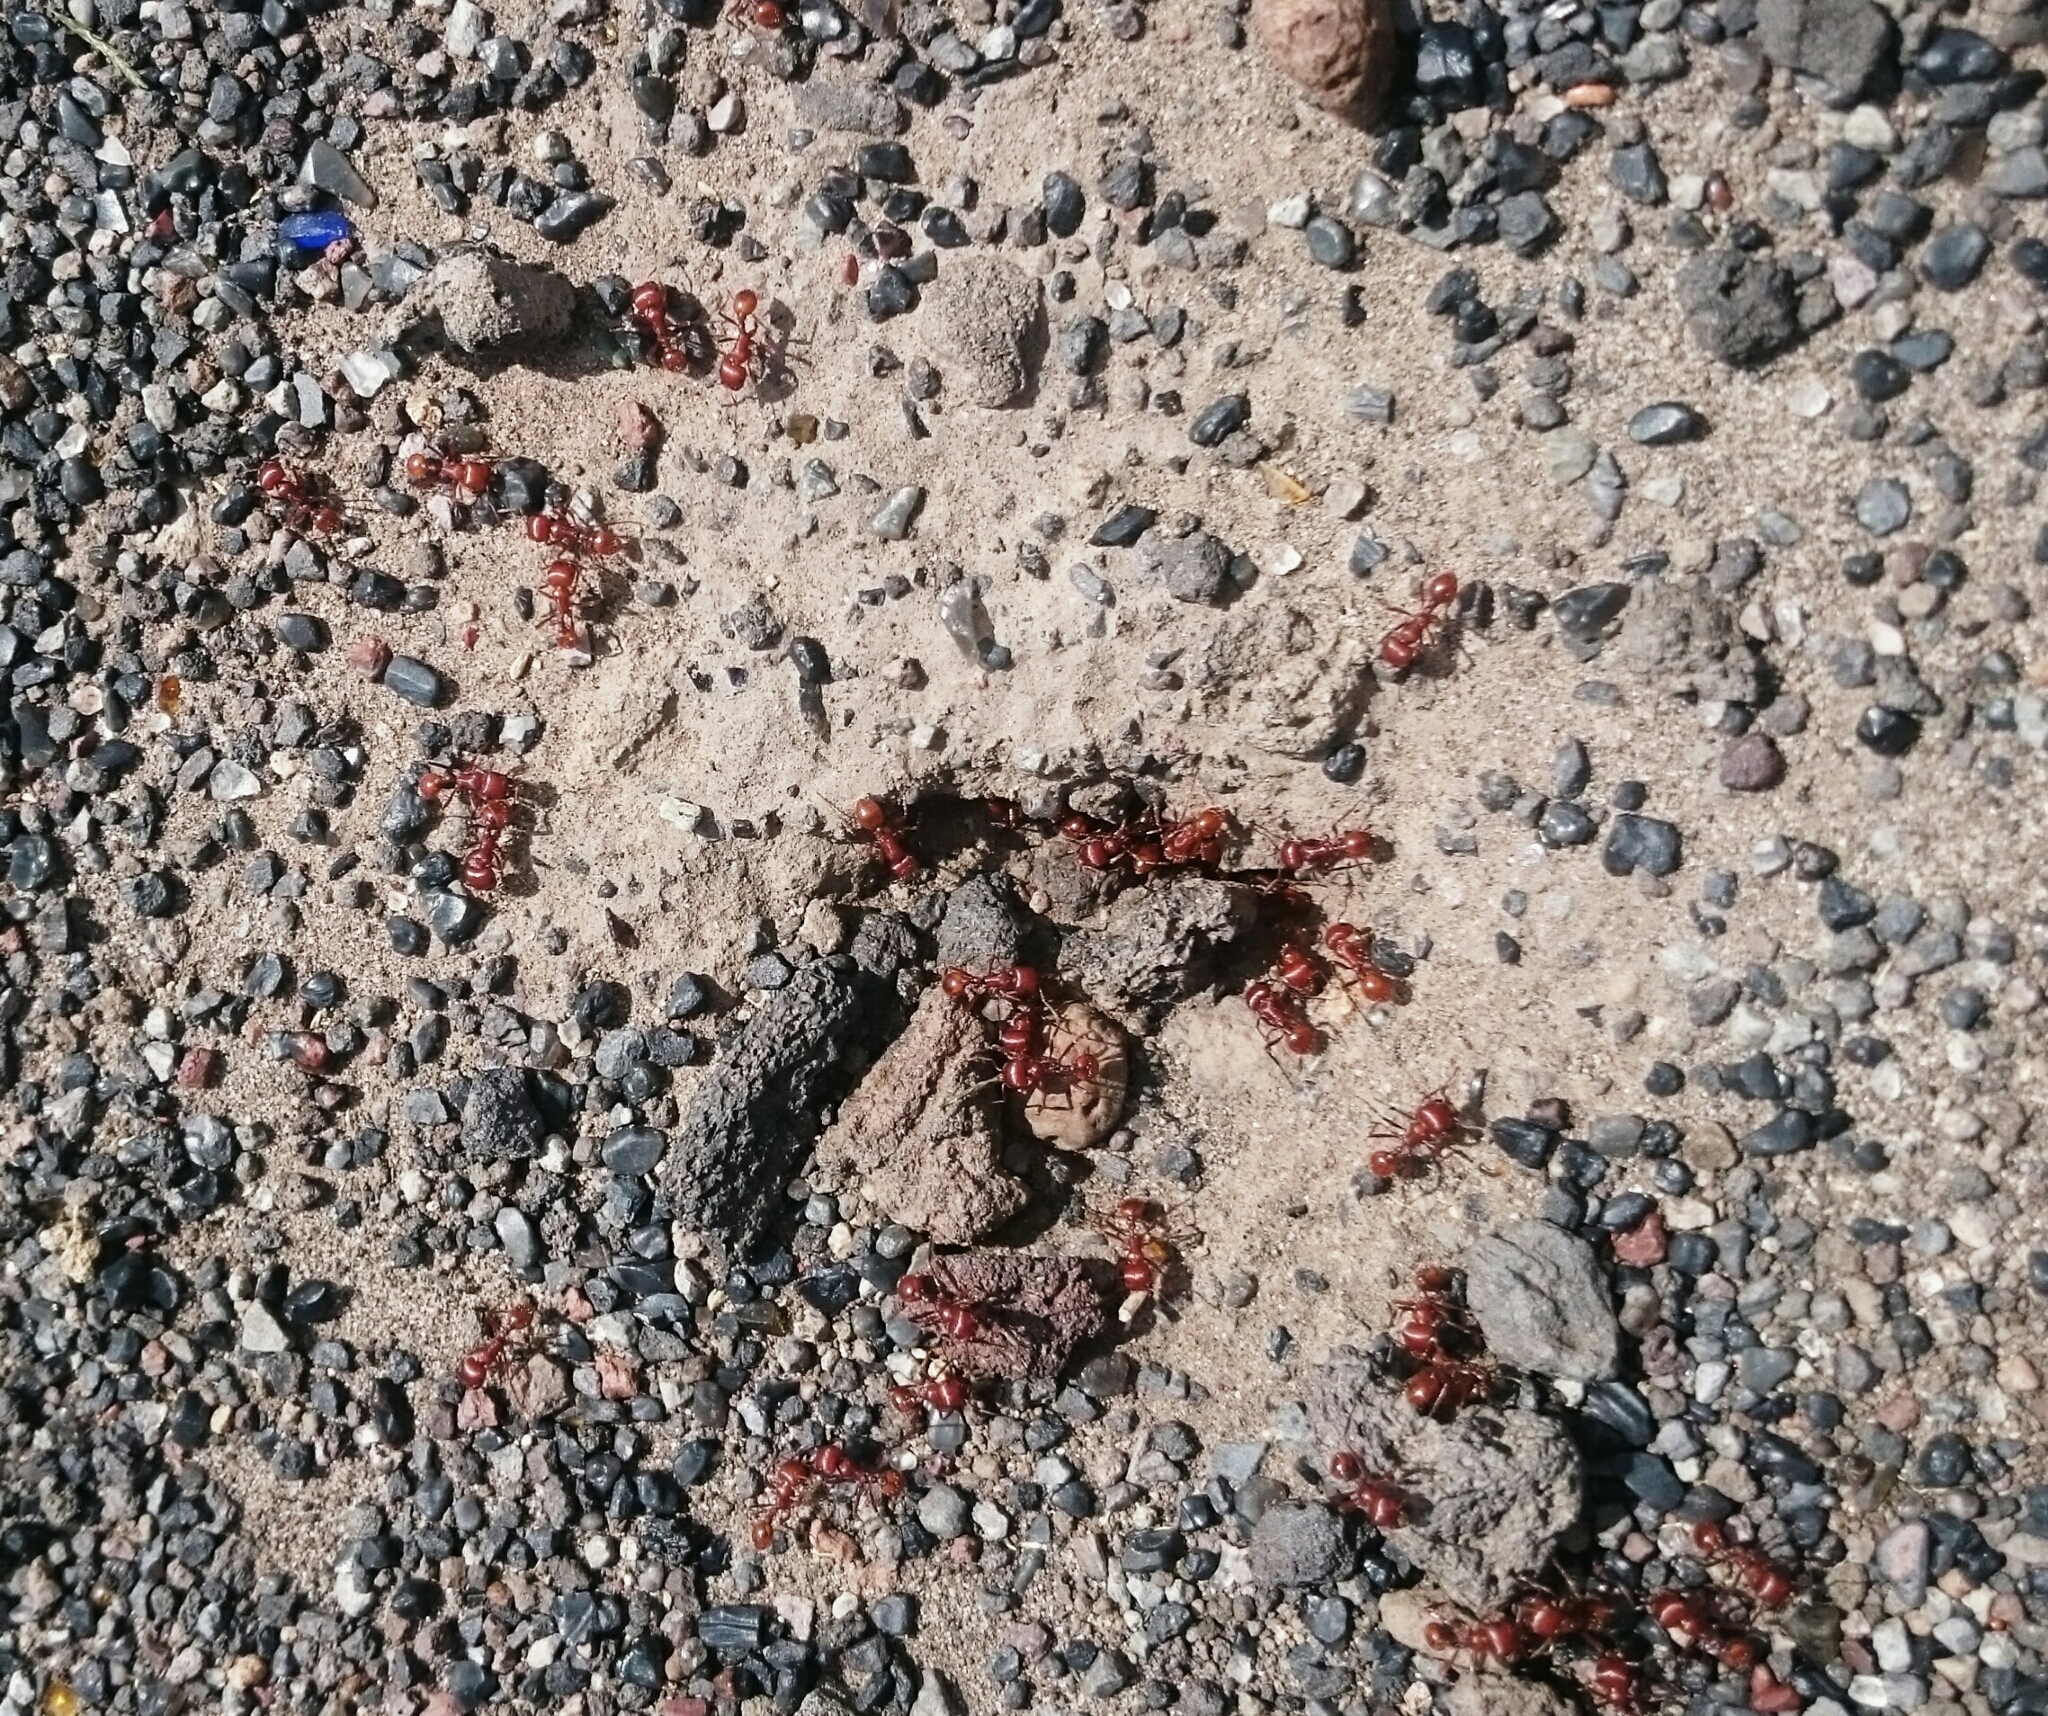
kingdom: Animalia
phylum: Arthropoda
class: Insecta
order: Hymenoptera
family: Formicidae
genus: Pogonomyrmex
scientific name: Pogonomyrmex barbatus
